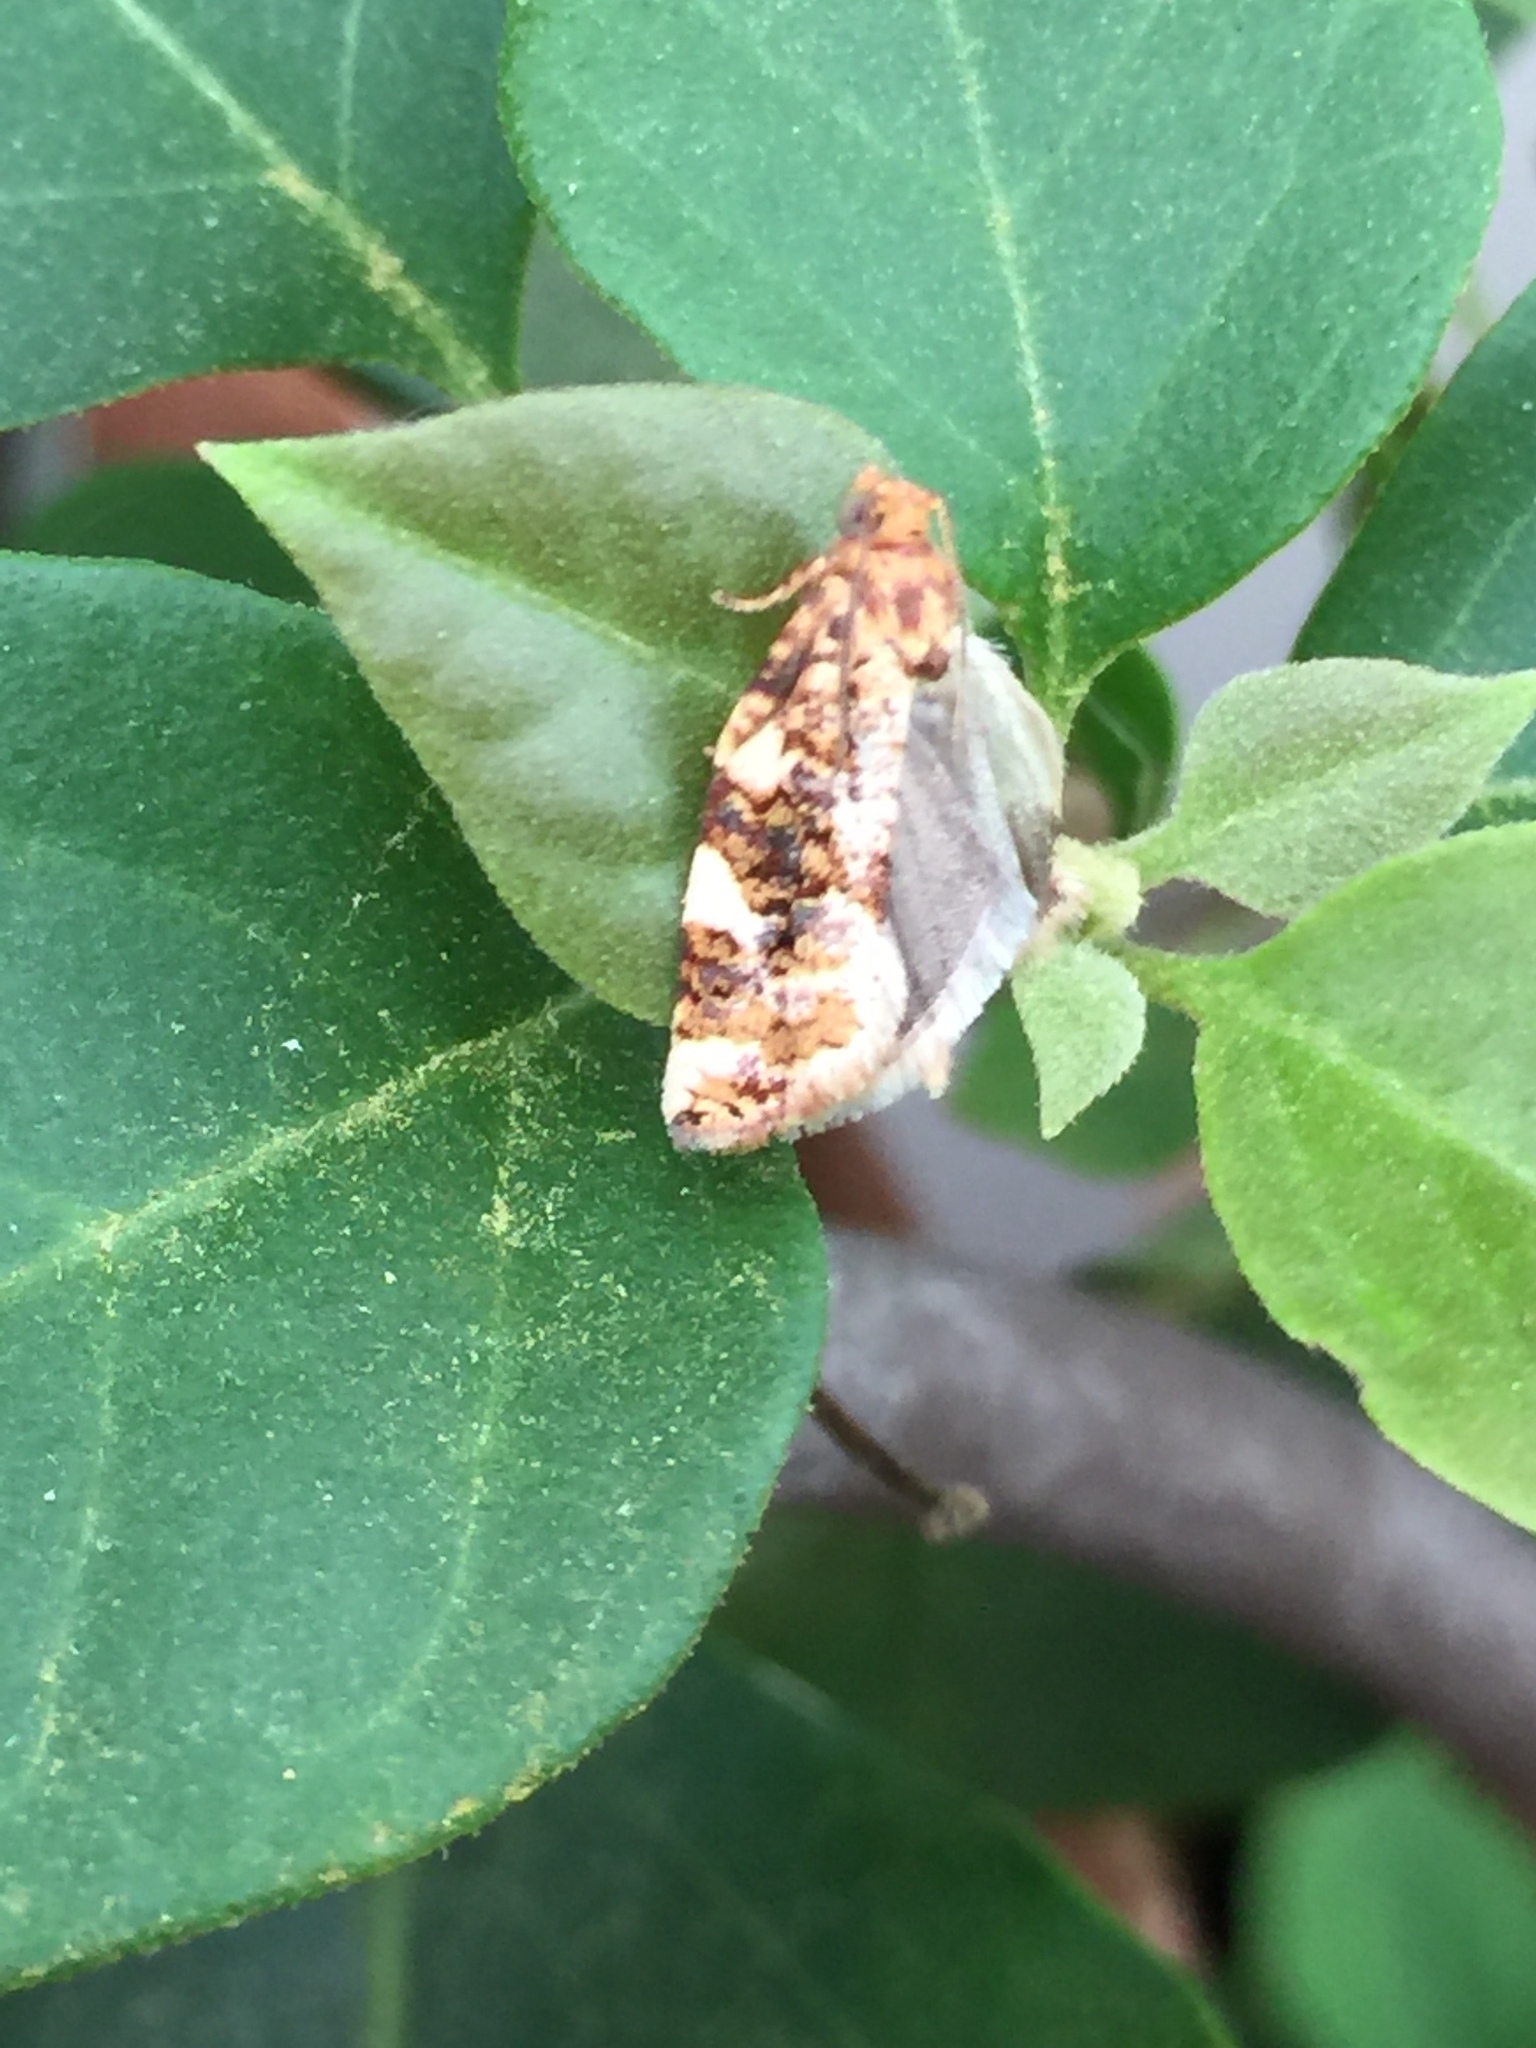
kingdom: Animalia
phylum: Arthropoda
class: Insecta
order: Lepidoptera
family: Tortricidae
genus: Archips
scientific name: Archips argyrospila
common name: Fruit-tree leafroller moth
